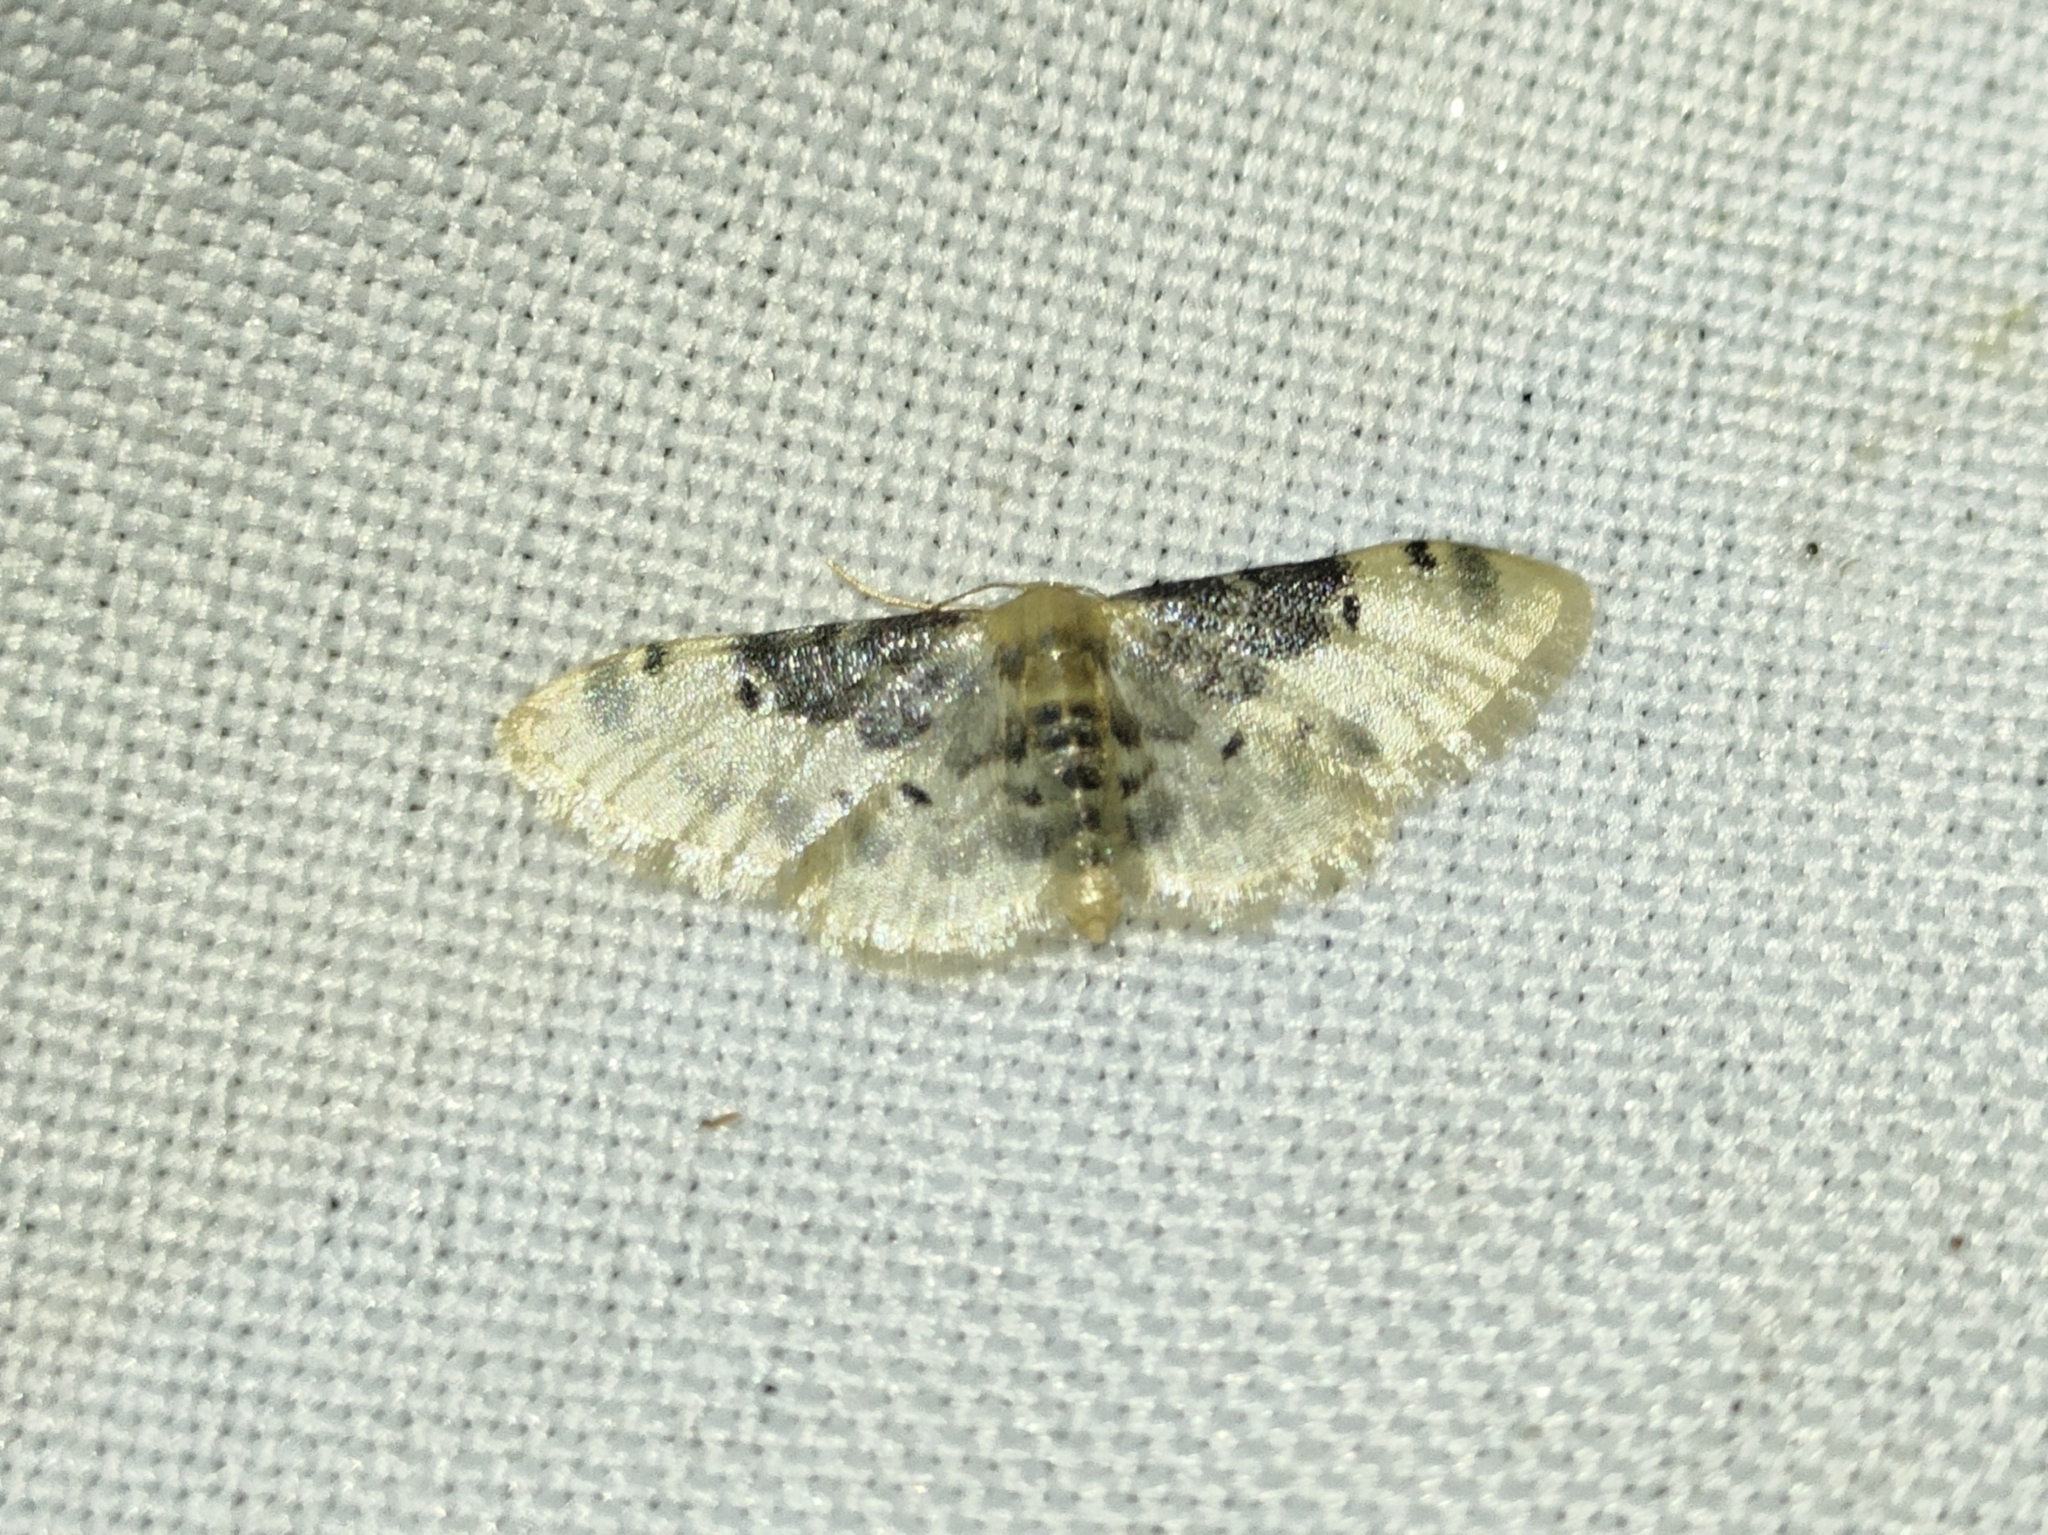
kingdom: Animalia
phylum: Arthropoda
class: Insecta
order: Lepidoptera
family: Geometridae
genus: Idaea
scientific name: Idaea filicata
